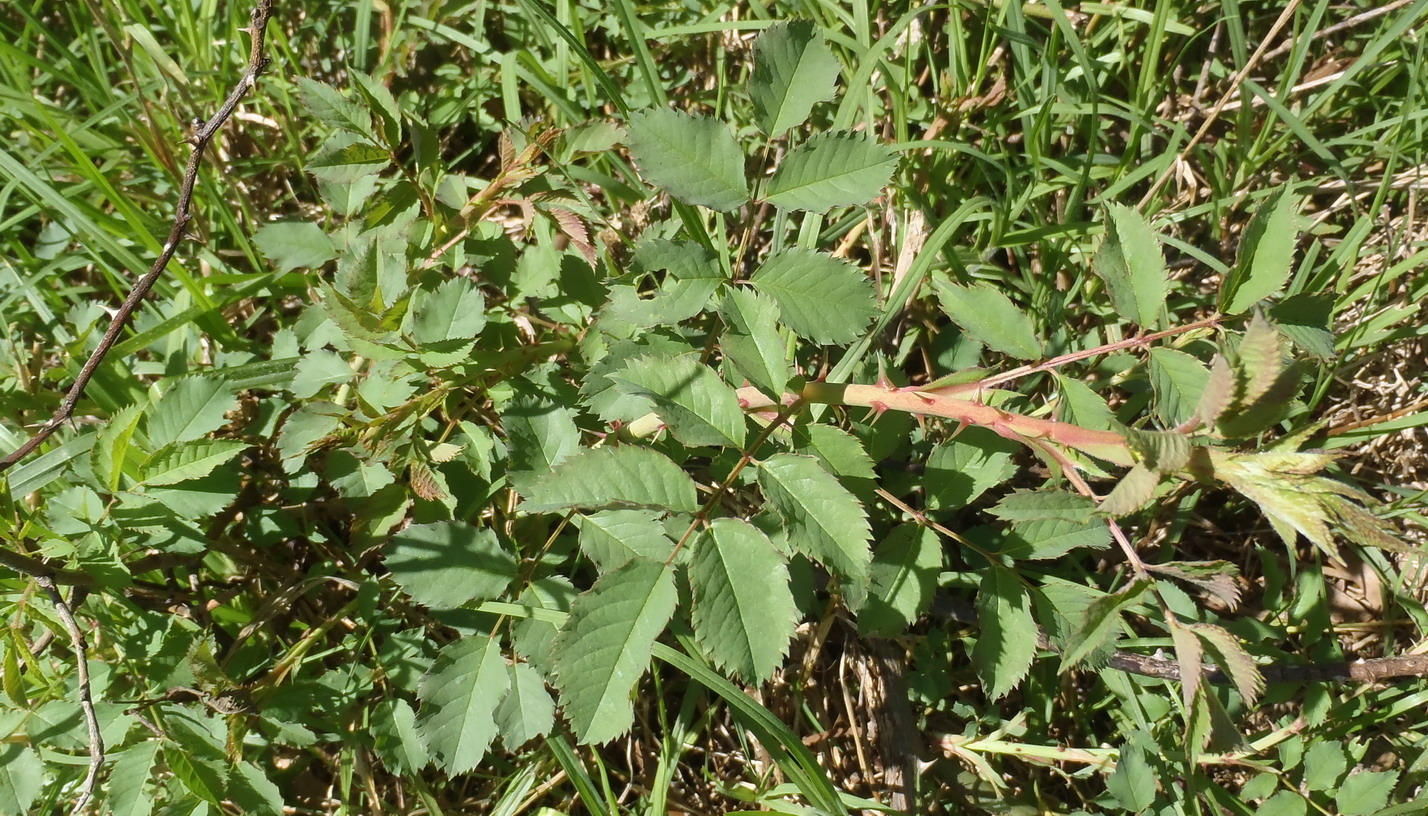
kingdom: Plantae
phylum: Tracheophyta
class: Magnoliopsida
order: Rosales
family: Rosaceae
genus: Rosa
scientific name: Rosa rubiginosa
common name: Sweet-briar
